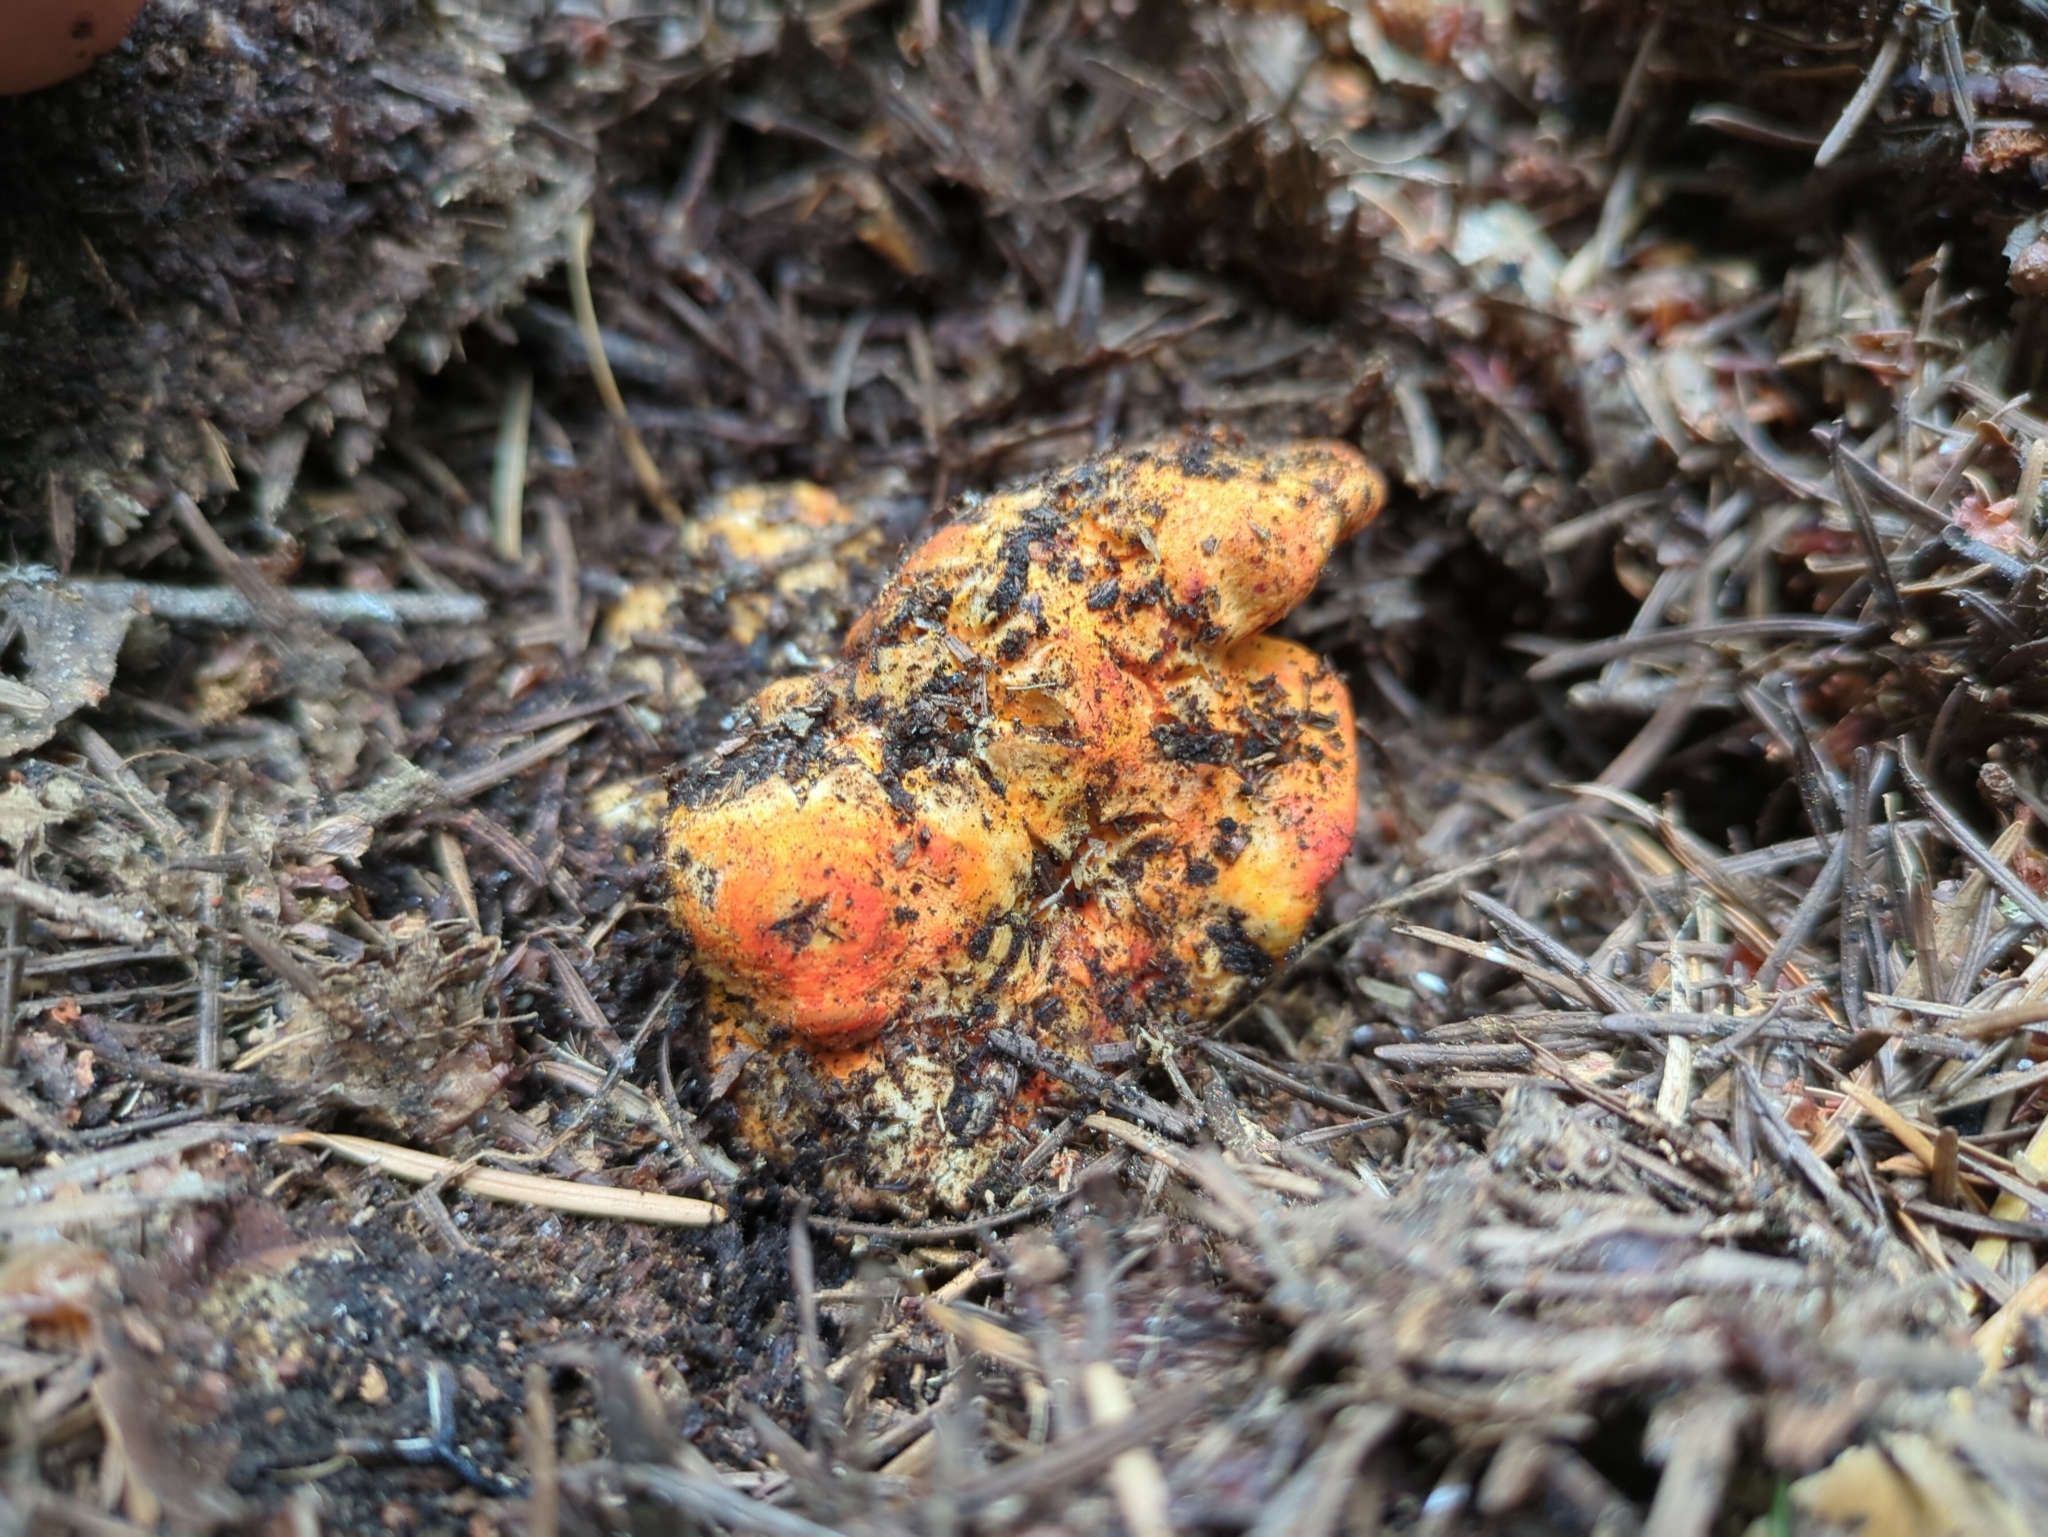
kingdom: Fungi
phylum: Ascomycota
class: Sordariomycetes
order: Hypocreales
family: Hypocreaceae
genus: Hypomyces
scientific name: Hypomyces lactifluorum
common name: Lobster mushroom
